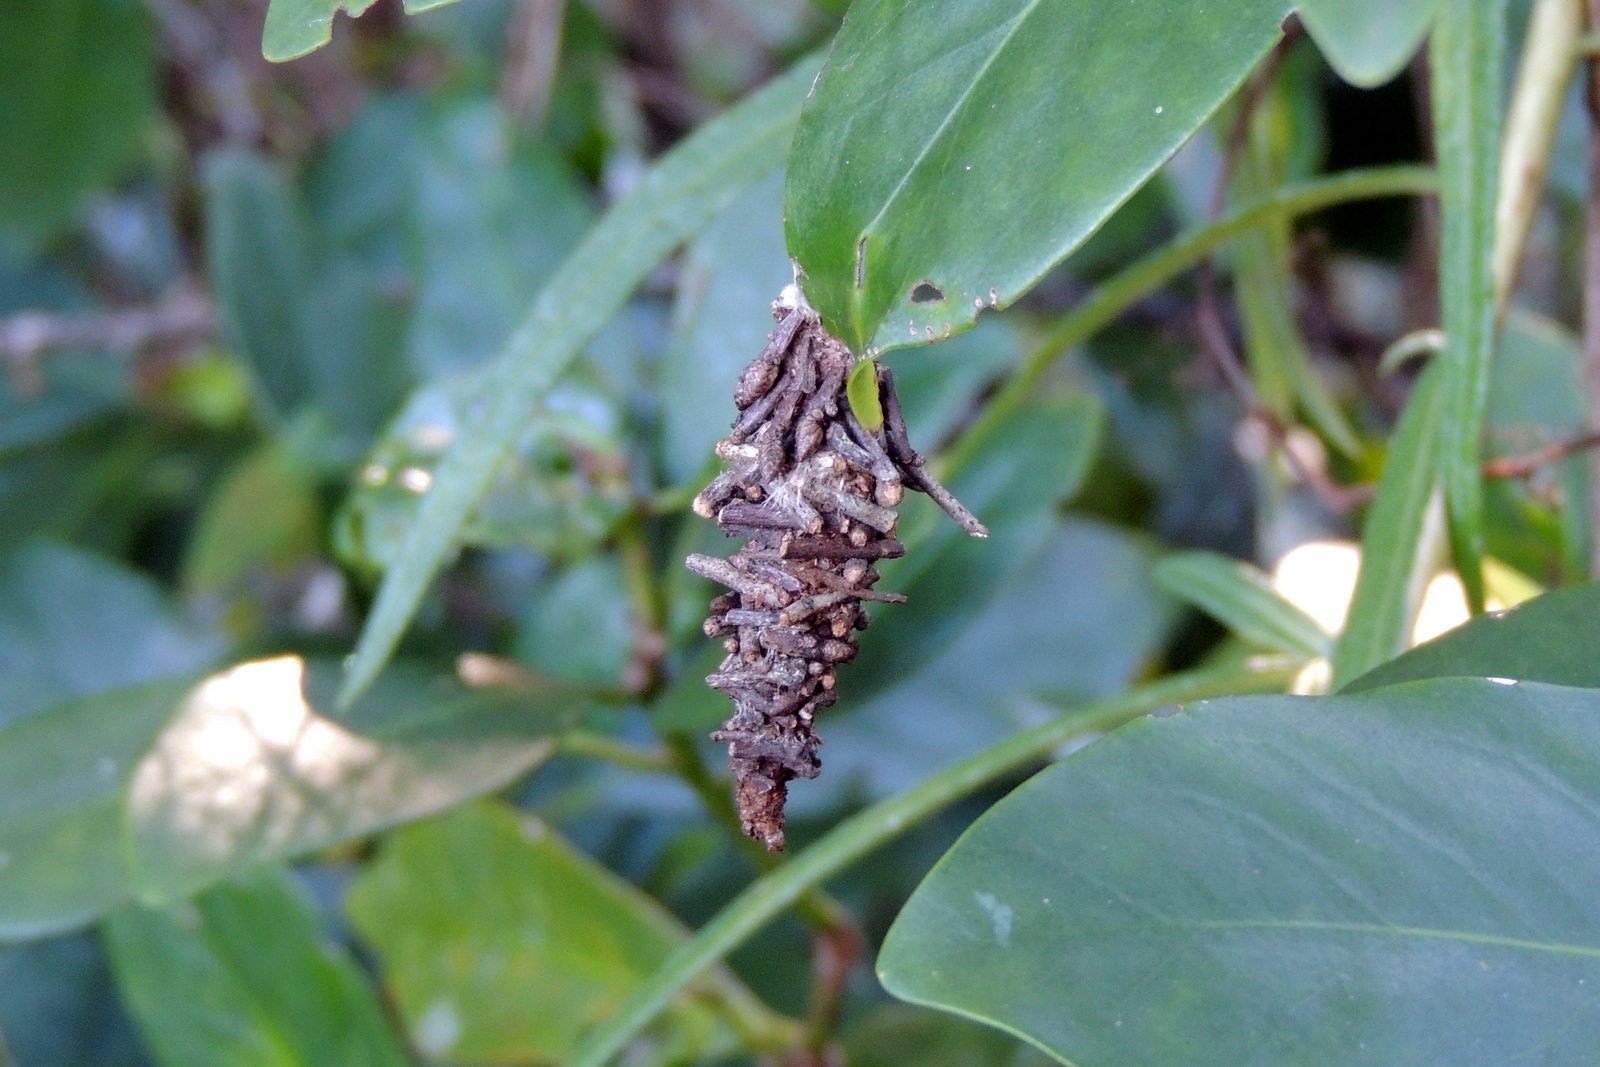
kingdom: Animalia
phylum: Arthropoda
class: Insecta
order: Lepidoptera
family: Psychidae
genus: Oiketicus
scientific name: Oiketicus
